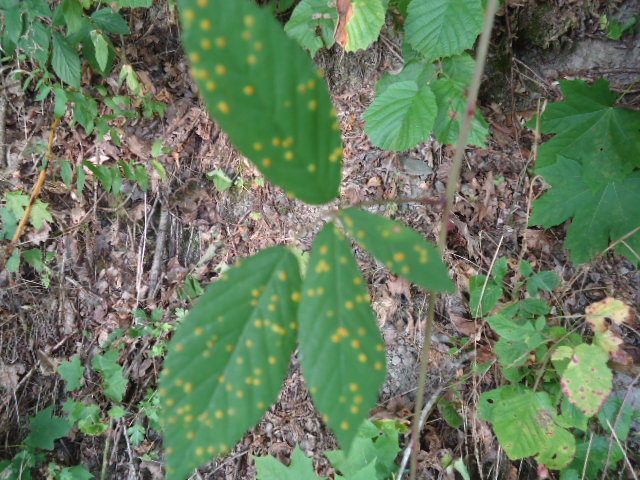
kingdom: Fungi
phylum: Basidiomycota
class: Pucciniomycetes
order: Pucciniales
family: Phragmidiaceae
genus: Kuehneola
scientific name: Kuehneola uredinis
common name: Bramble stem rust
